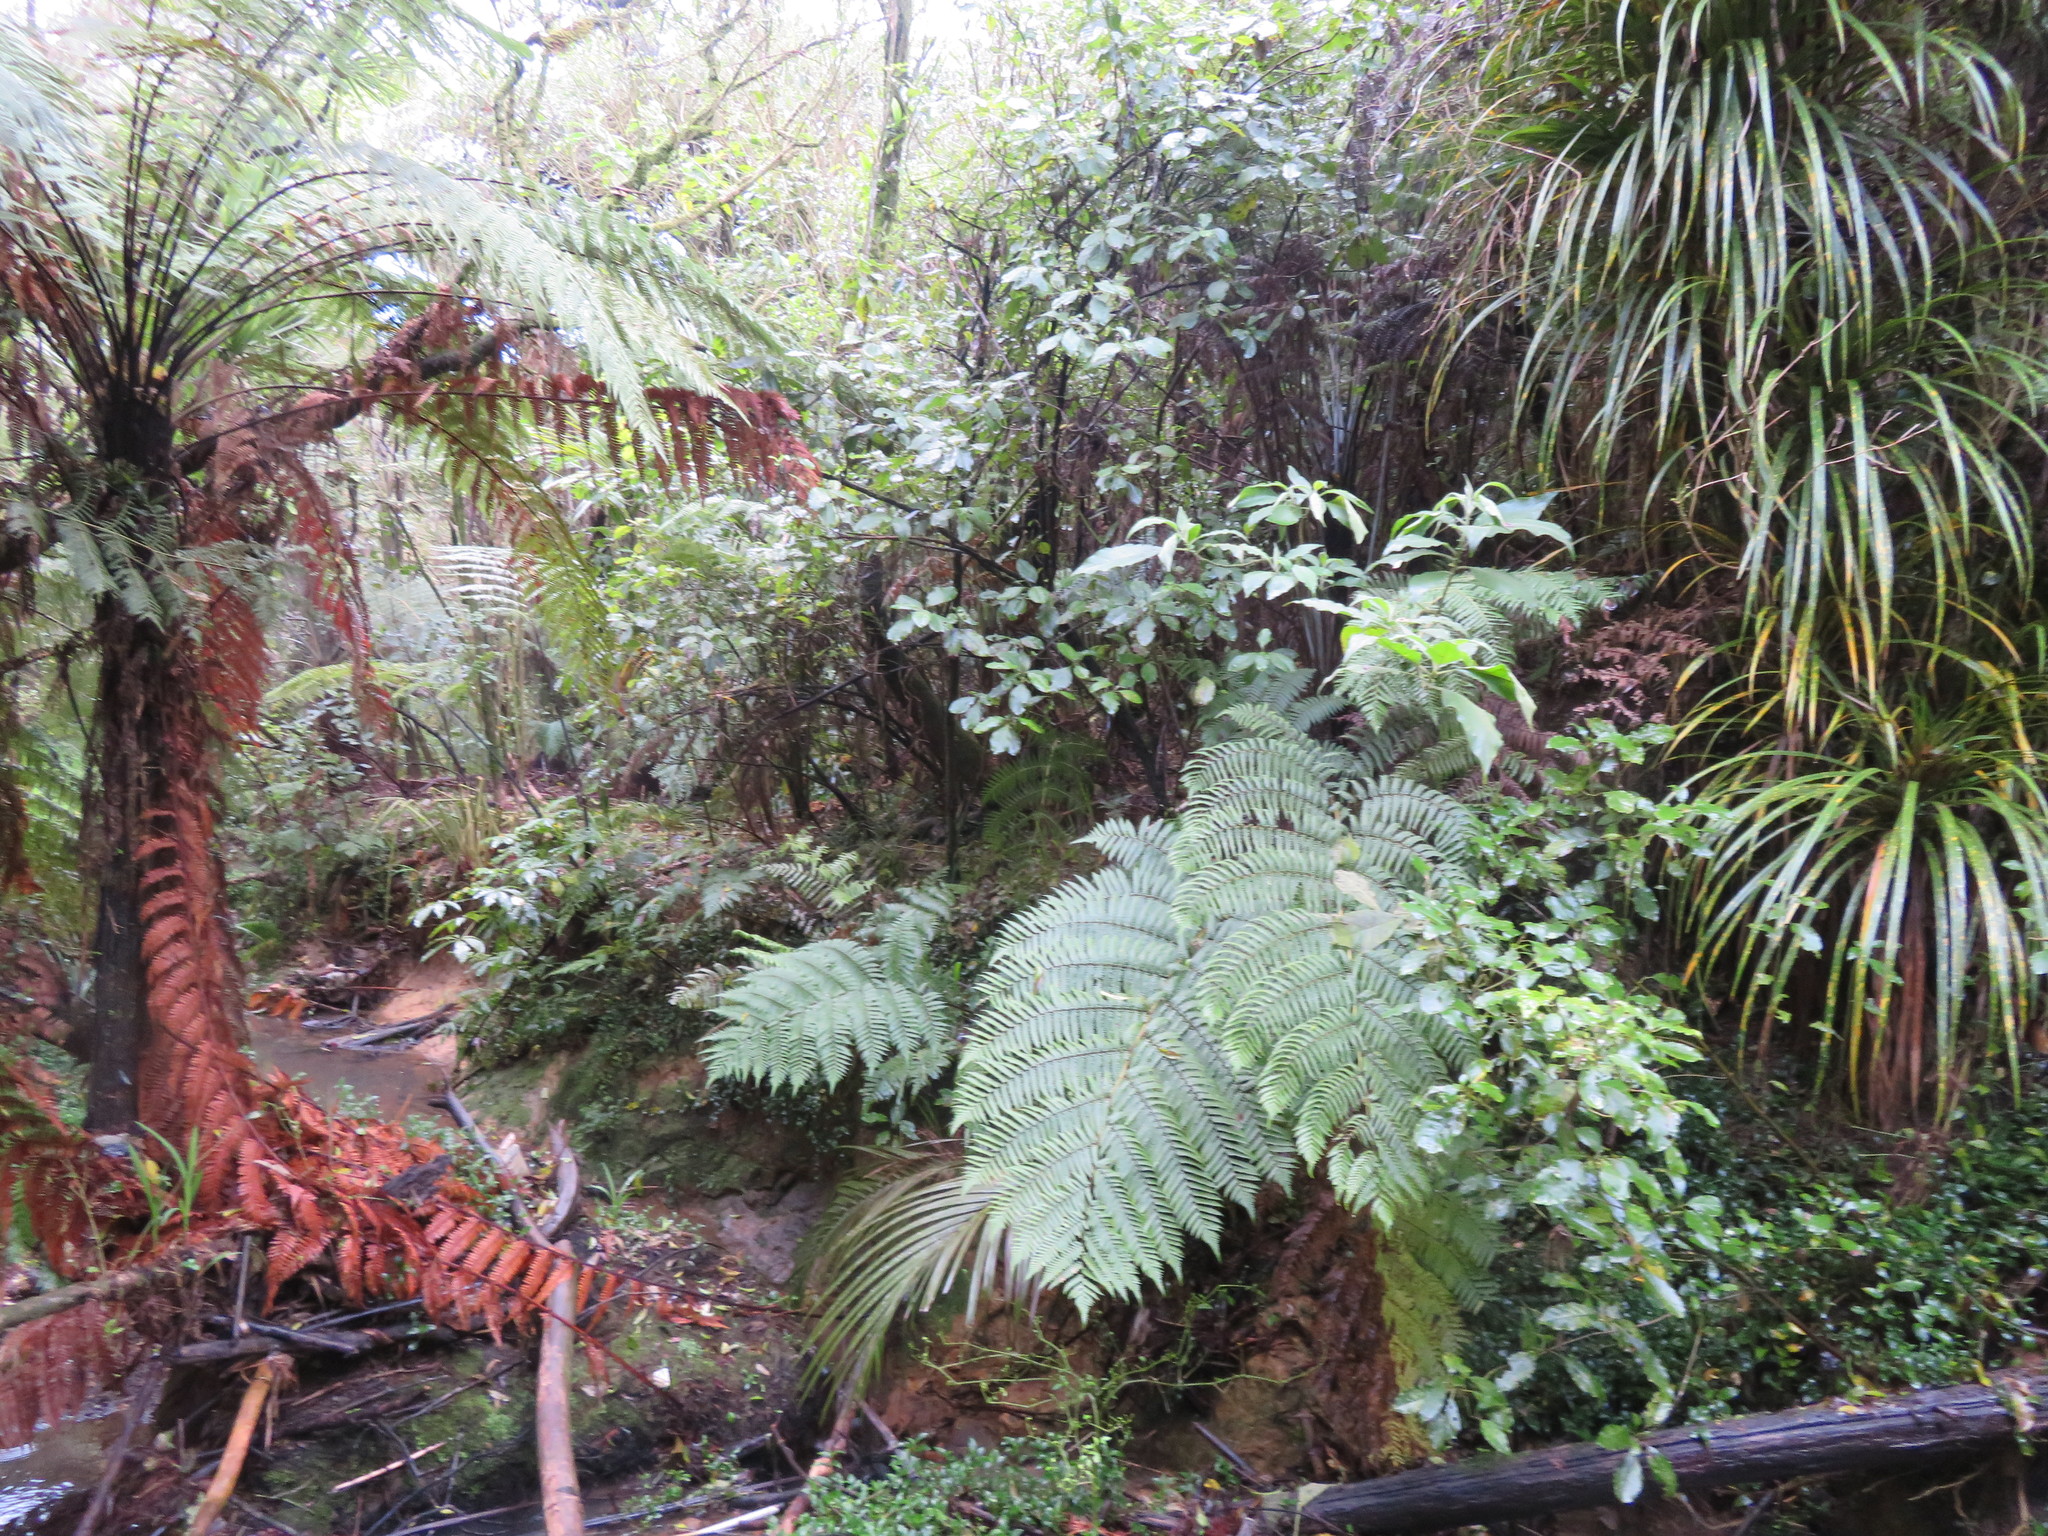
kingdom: Plantae
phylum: Tracheophyta
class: Liliopsida
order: Arecales
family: Arecaceae
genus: Rhopalostylis
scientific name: Rhopalostylis sapida
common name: Feather-duster palm
